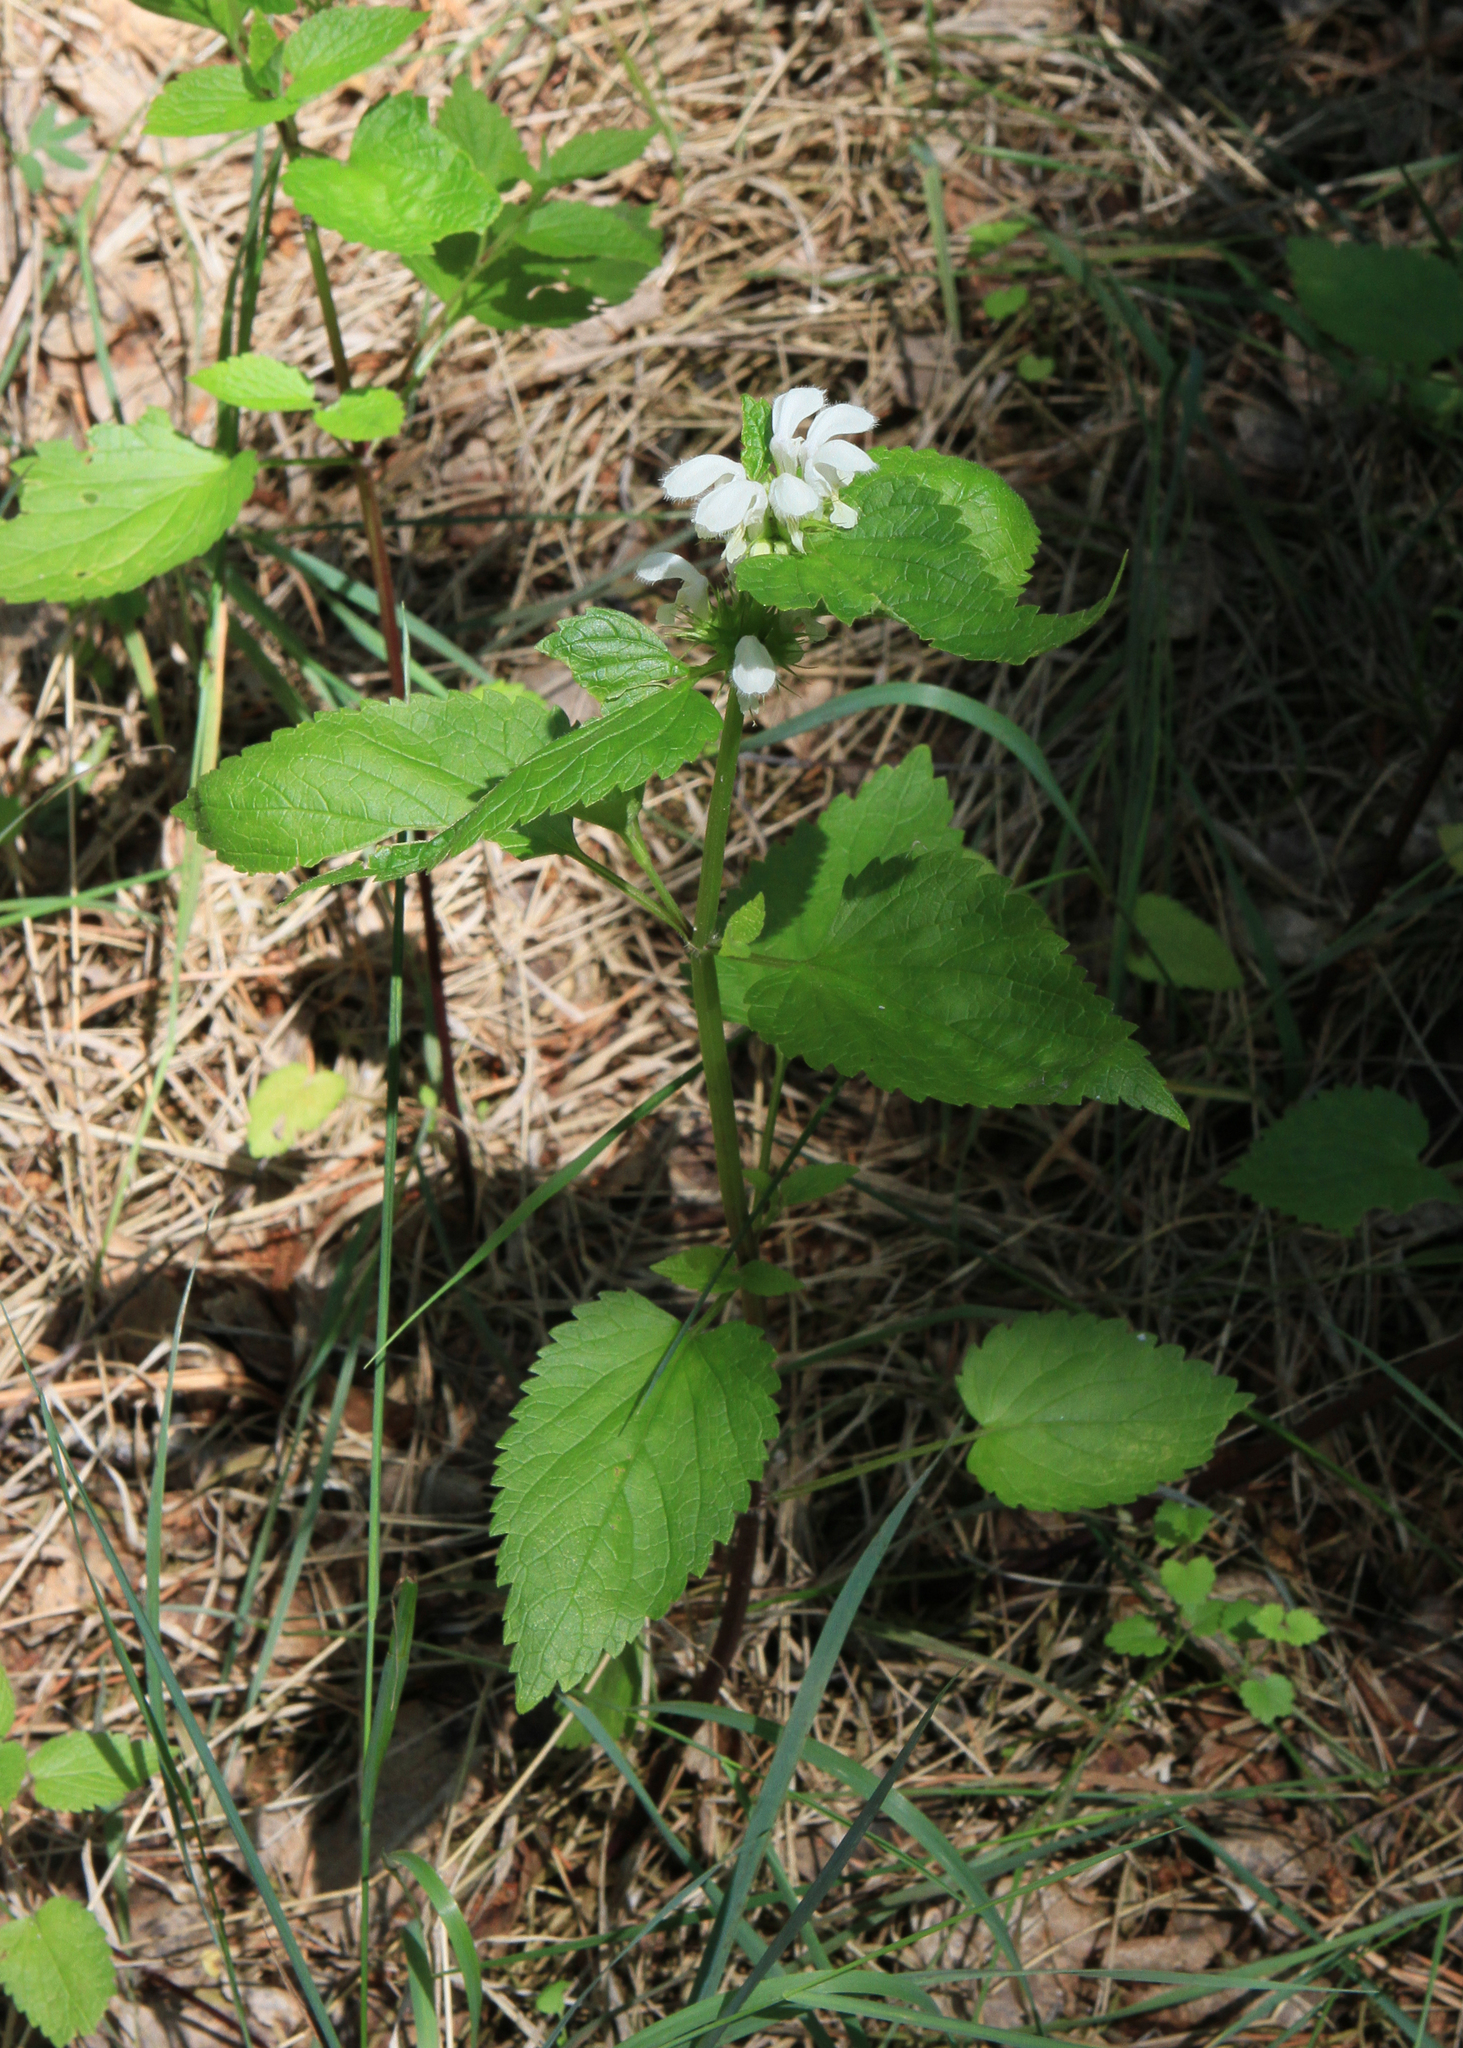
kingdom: Plantae
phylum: Tracheophyta
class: Magnoliopsida
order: Lamiales
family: Lamiaceae
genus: Lamium
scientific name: Lamium album
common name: White dead-nettle
